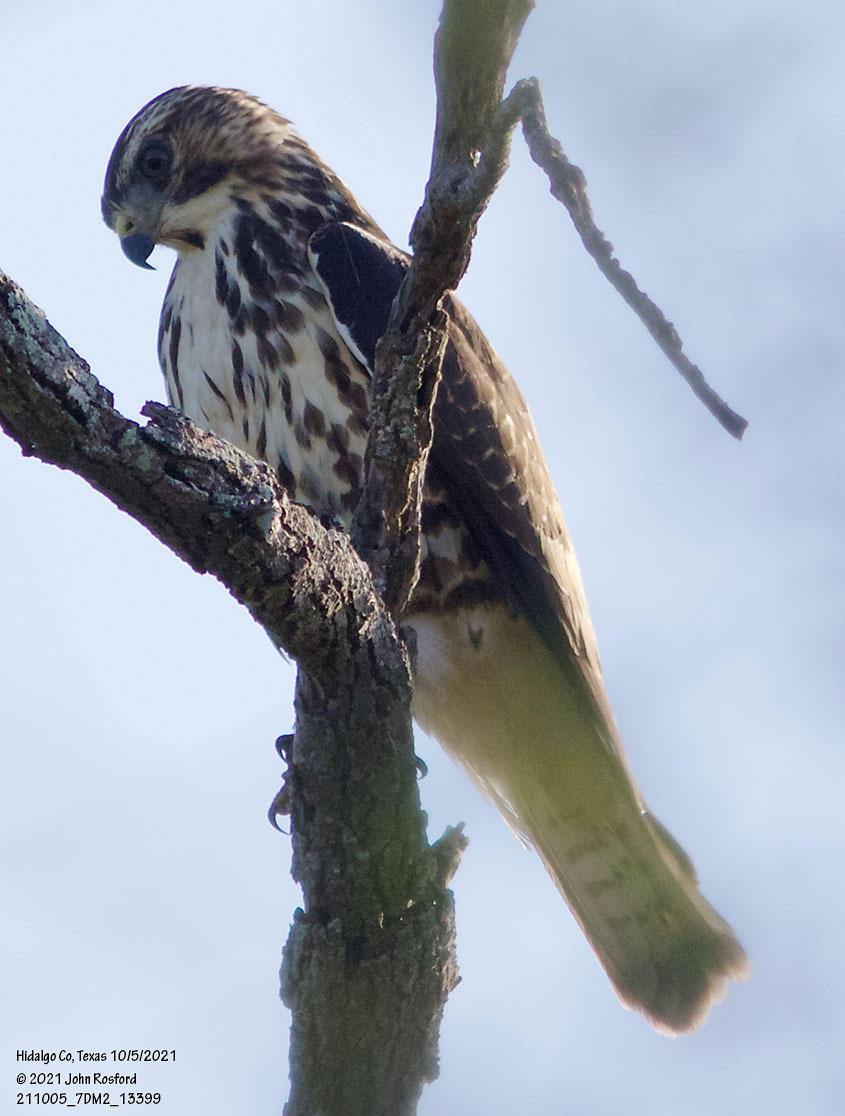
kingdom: Animalia
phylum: Chordata
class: Aves
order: Accipitriformes
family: Accipitridae
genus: Buteo
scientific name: Buteo platypterus
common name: Broad-winged hawk
